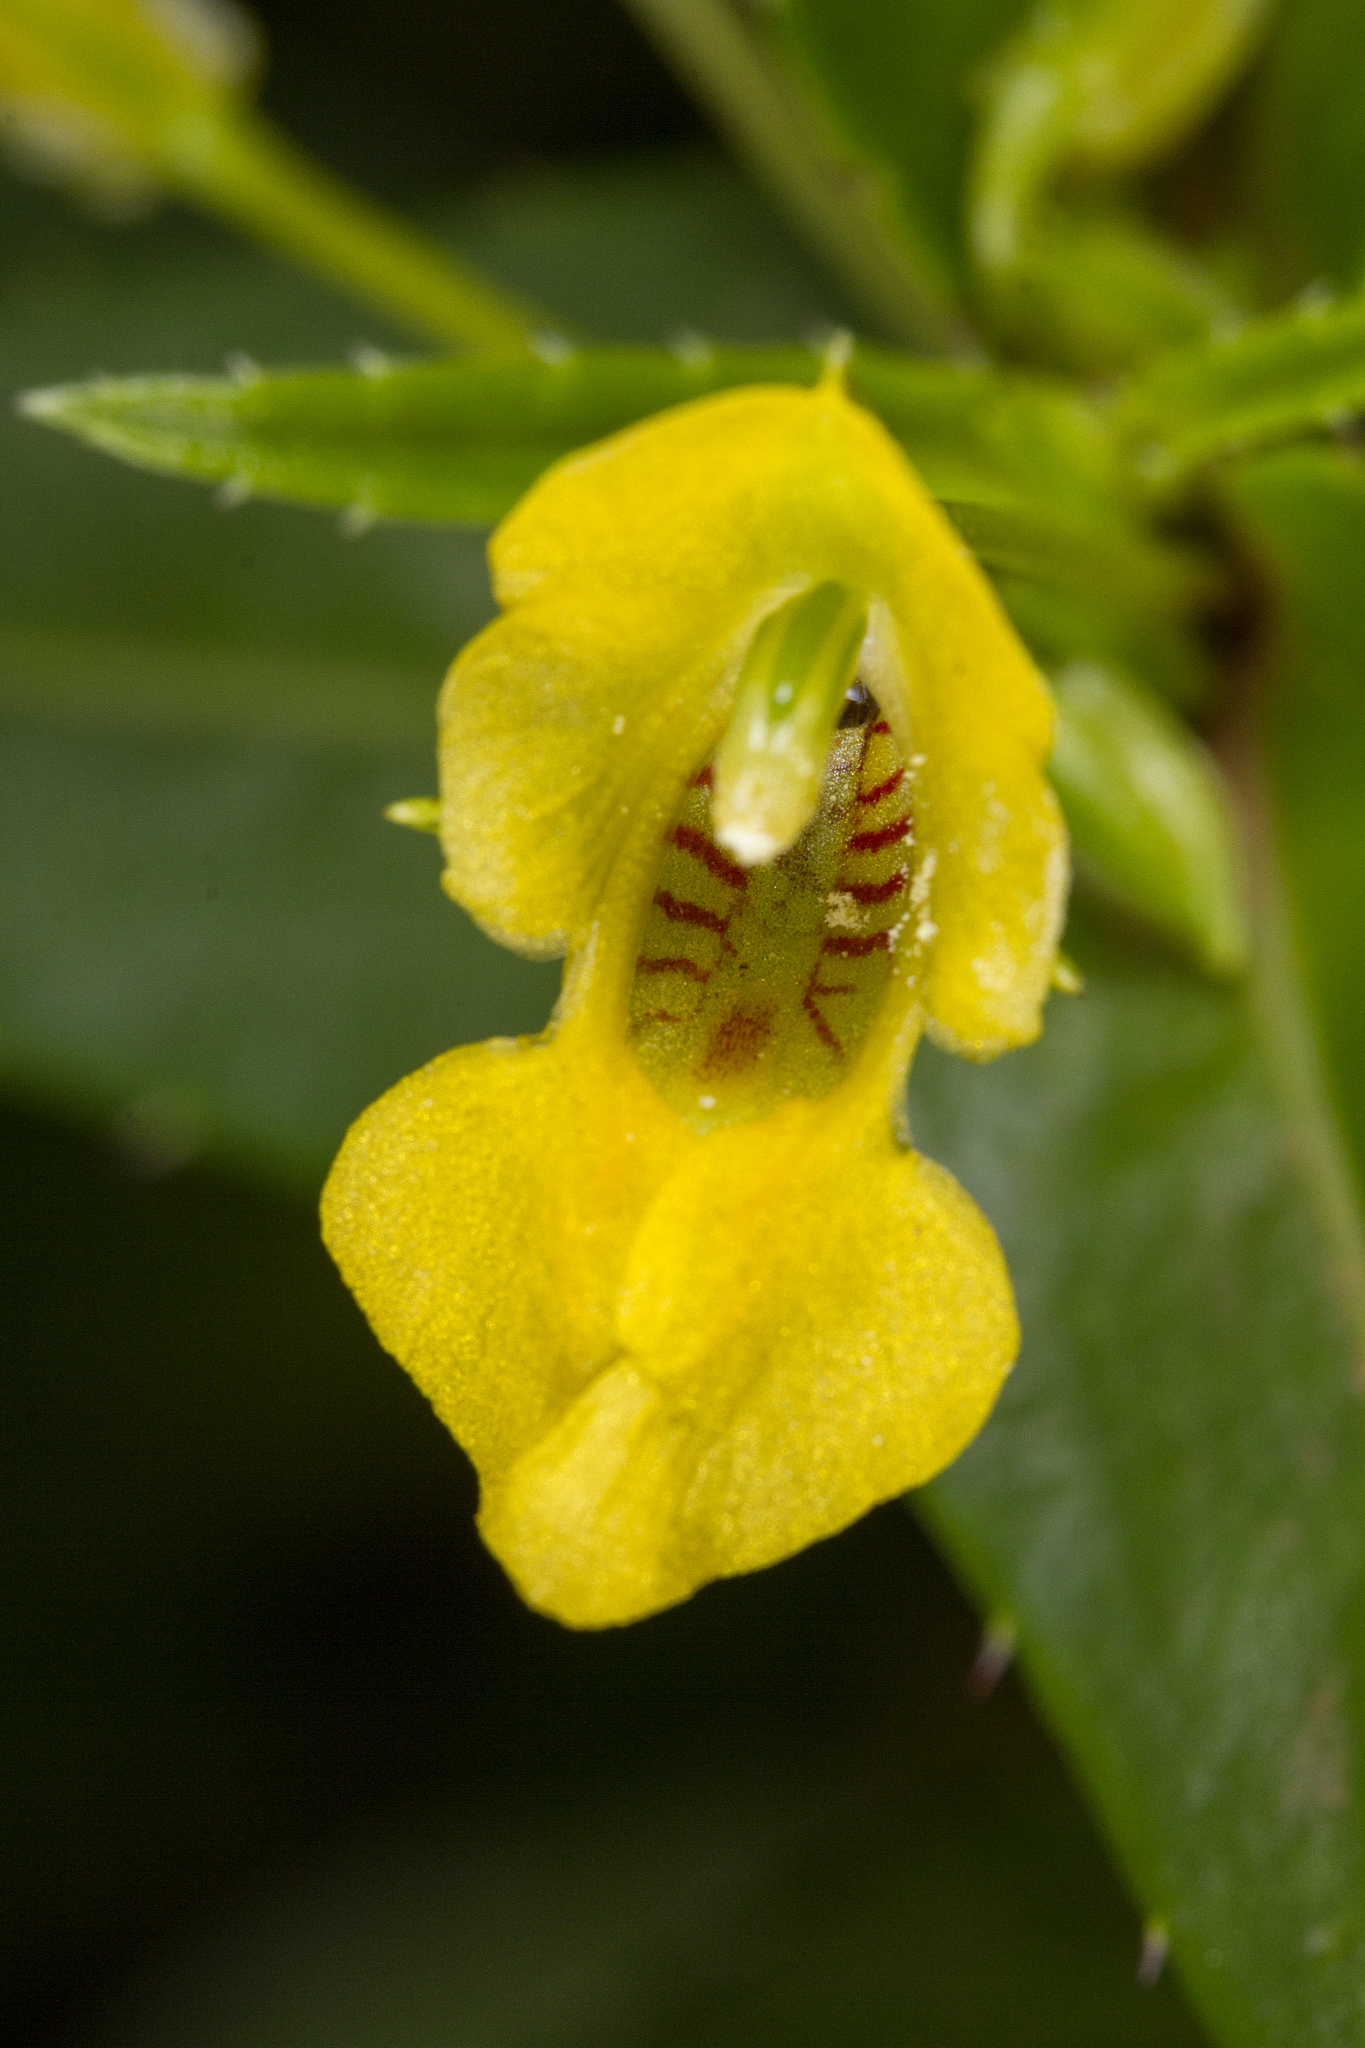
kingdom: Plantae
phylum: Tracheophyta
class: Magnoliopsida
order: Ericales
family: Balsaminaceae
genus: Impatiens
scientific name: Impatiens dalzellii
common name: Dalzell's yellow balsam
